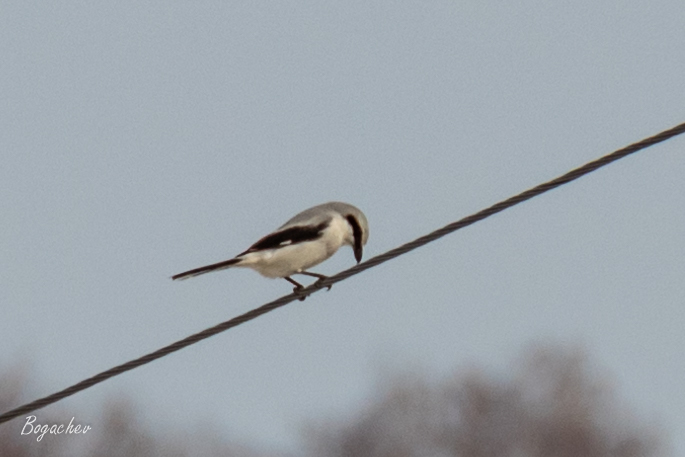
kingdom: Animalia
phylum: Chordata
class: Aves
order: Passeriformes
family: Laniidae
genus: Lanius
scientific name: Lanius excubitor
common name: Great grey shrike
